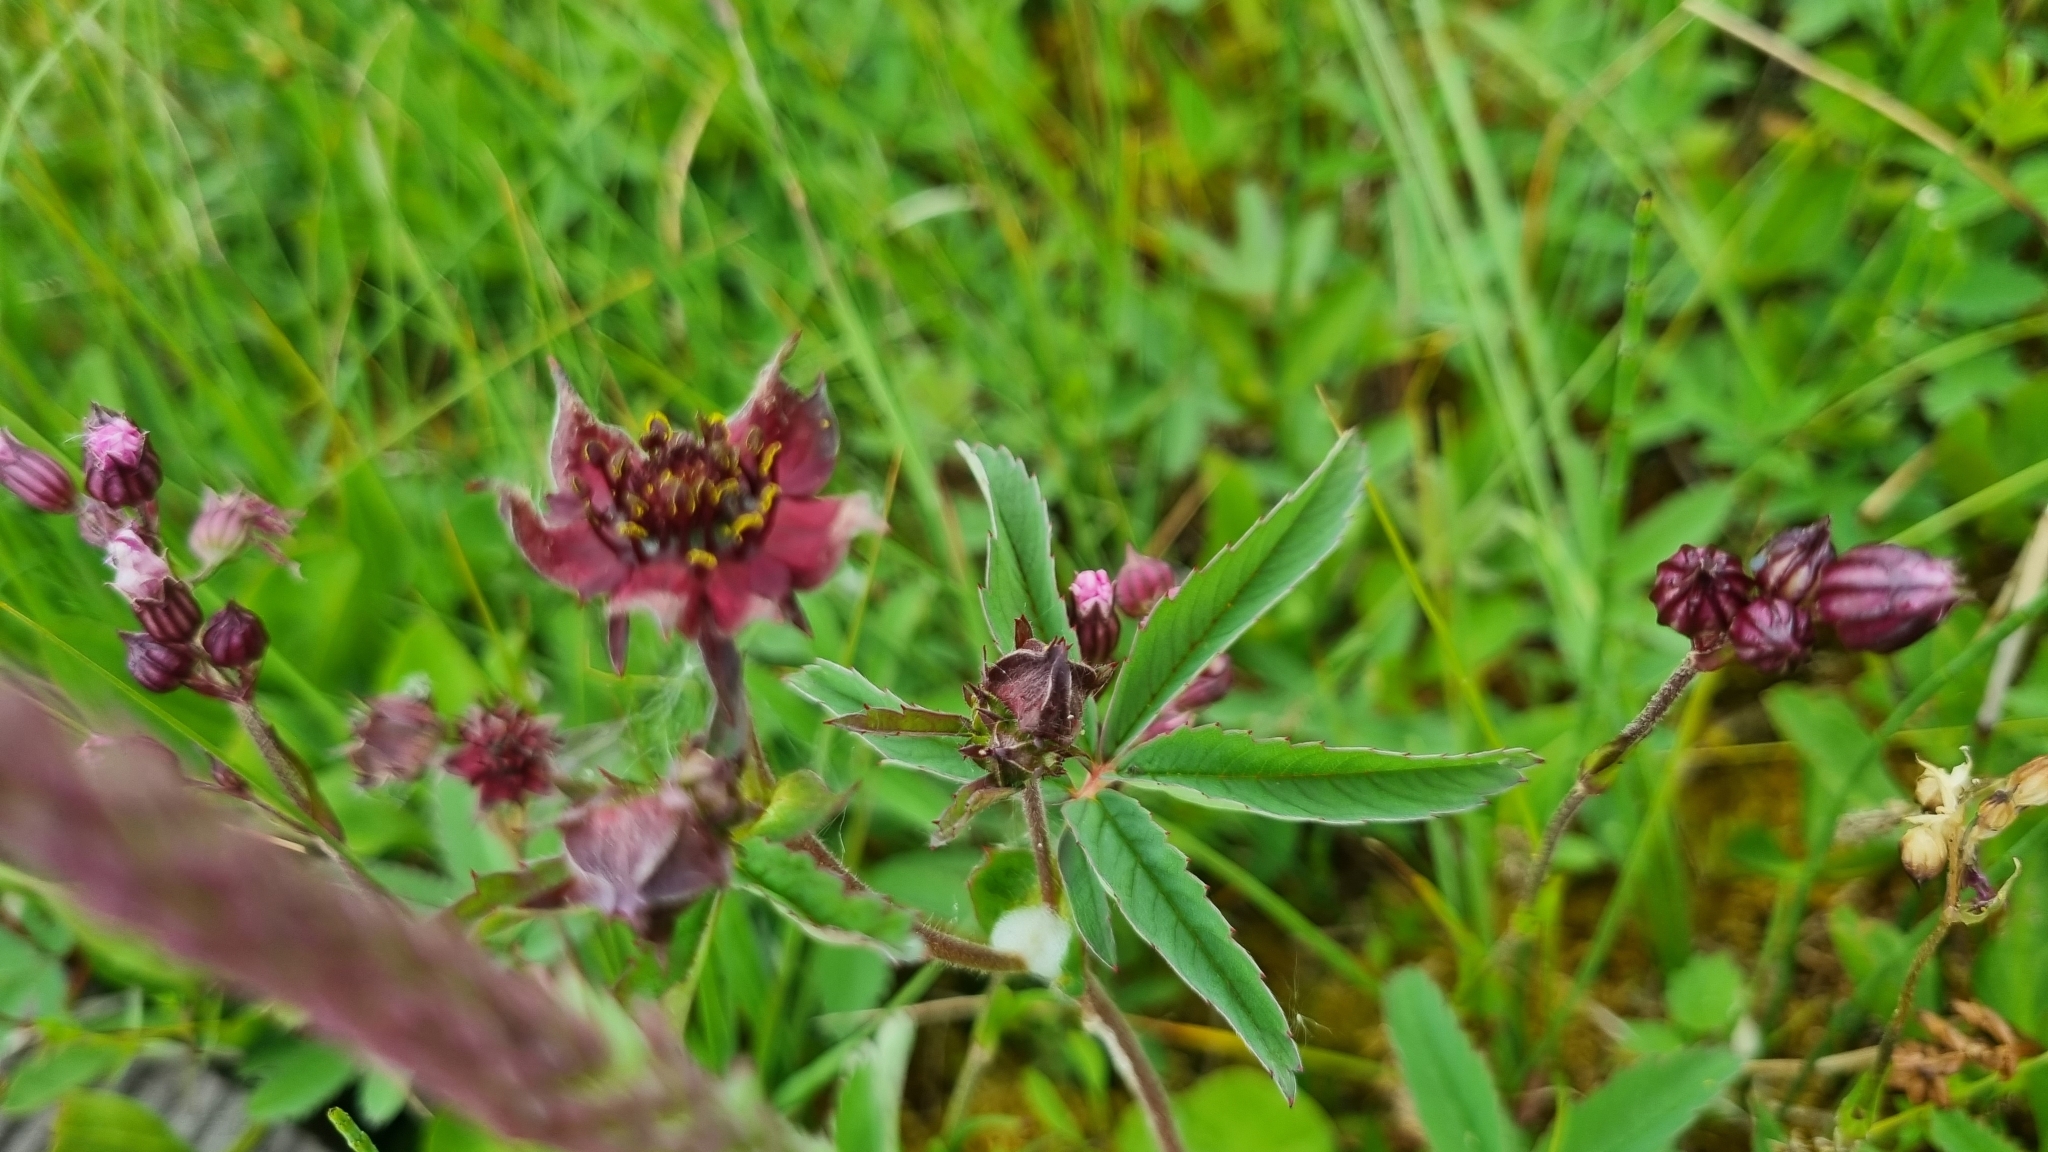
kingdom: Plantae
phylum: Tracheophyta
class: Magnoliopsida
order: Rosales
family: Rosaceae
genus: Comarum
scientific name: Comarum palustre
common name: Marsh cinquefoil
